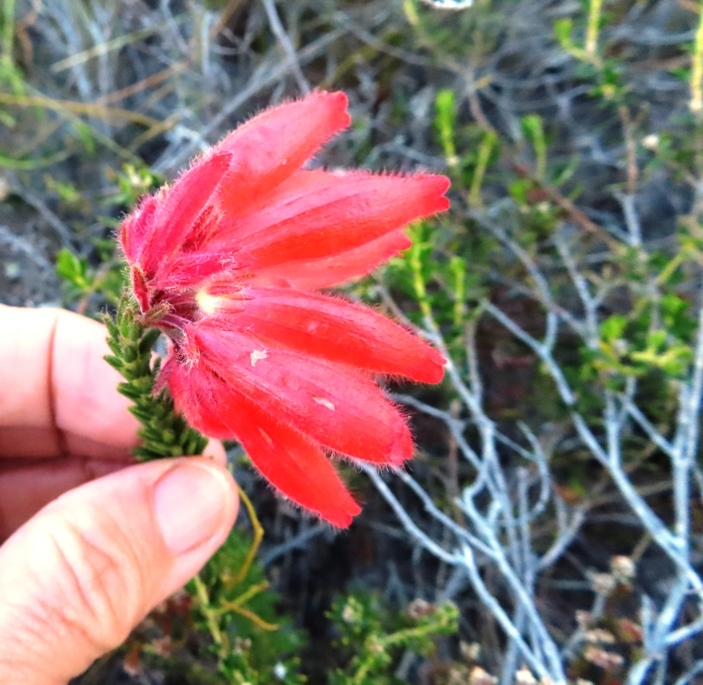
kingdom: Plantae
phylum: Tracheophyta
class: Magnoliopsida
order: Ericales
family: Ericaceae
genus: Erica
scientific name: Erica cerinthoides
